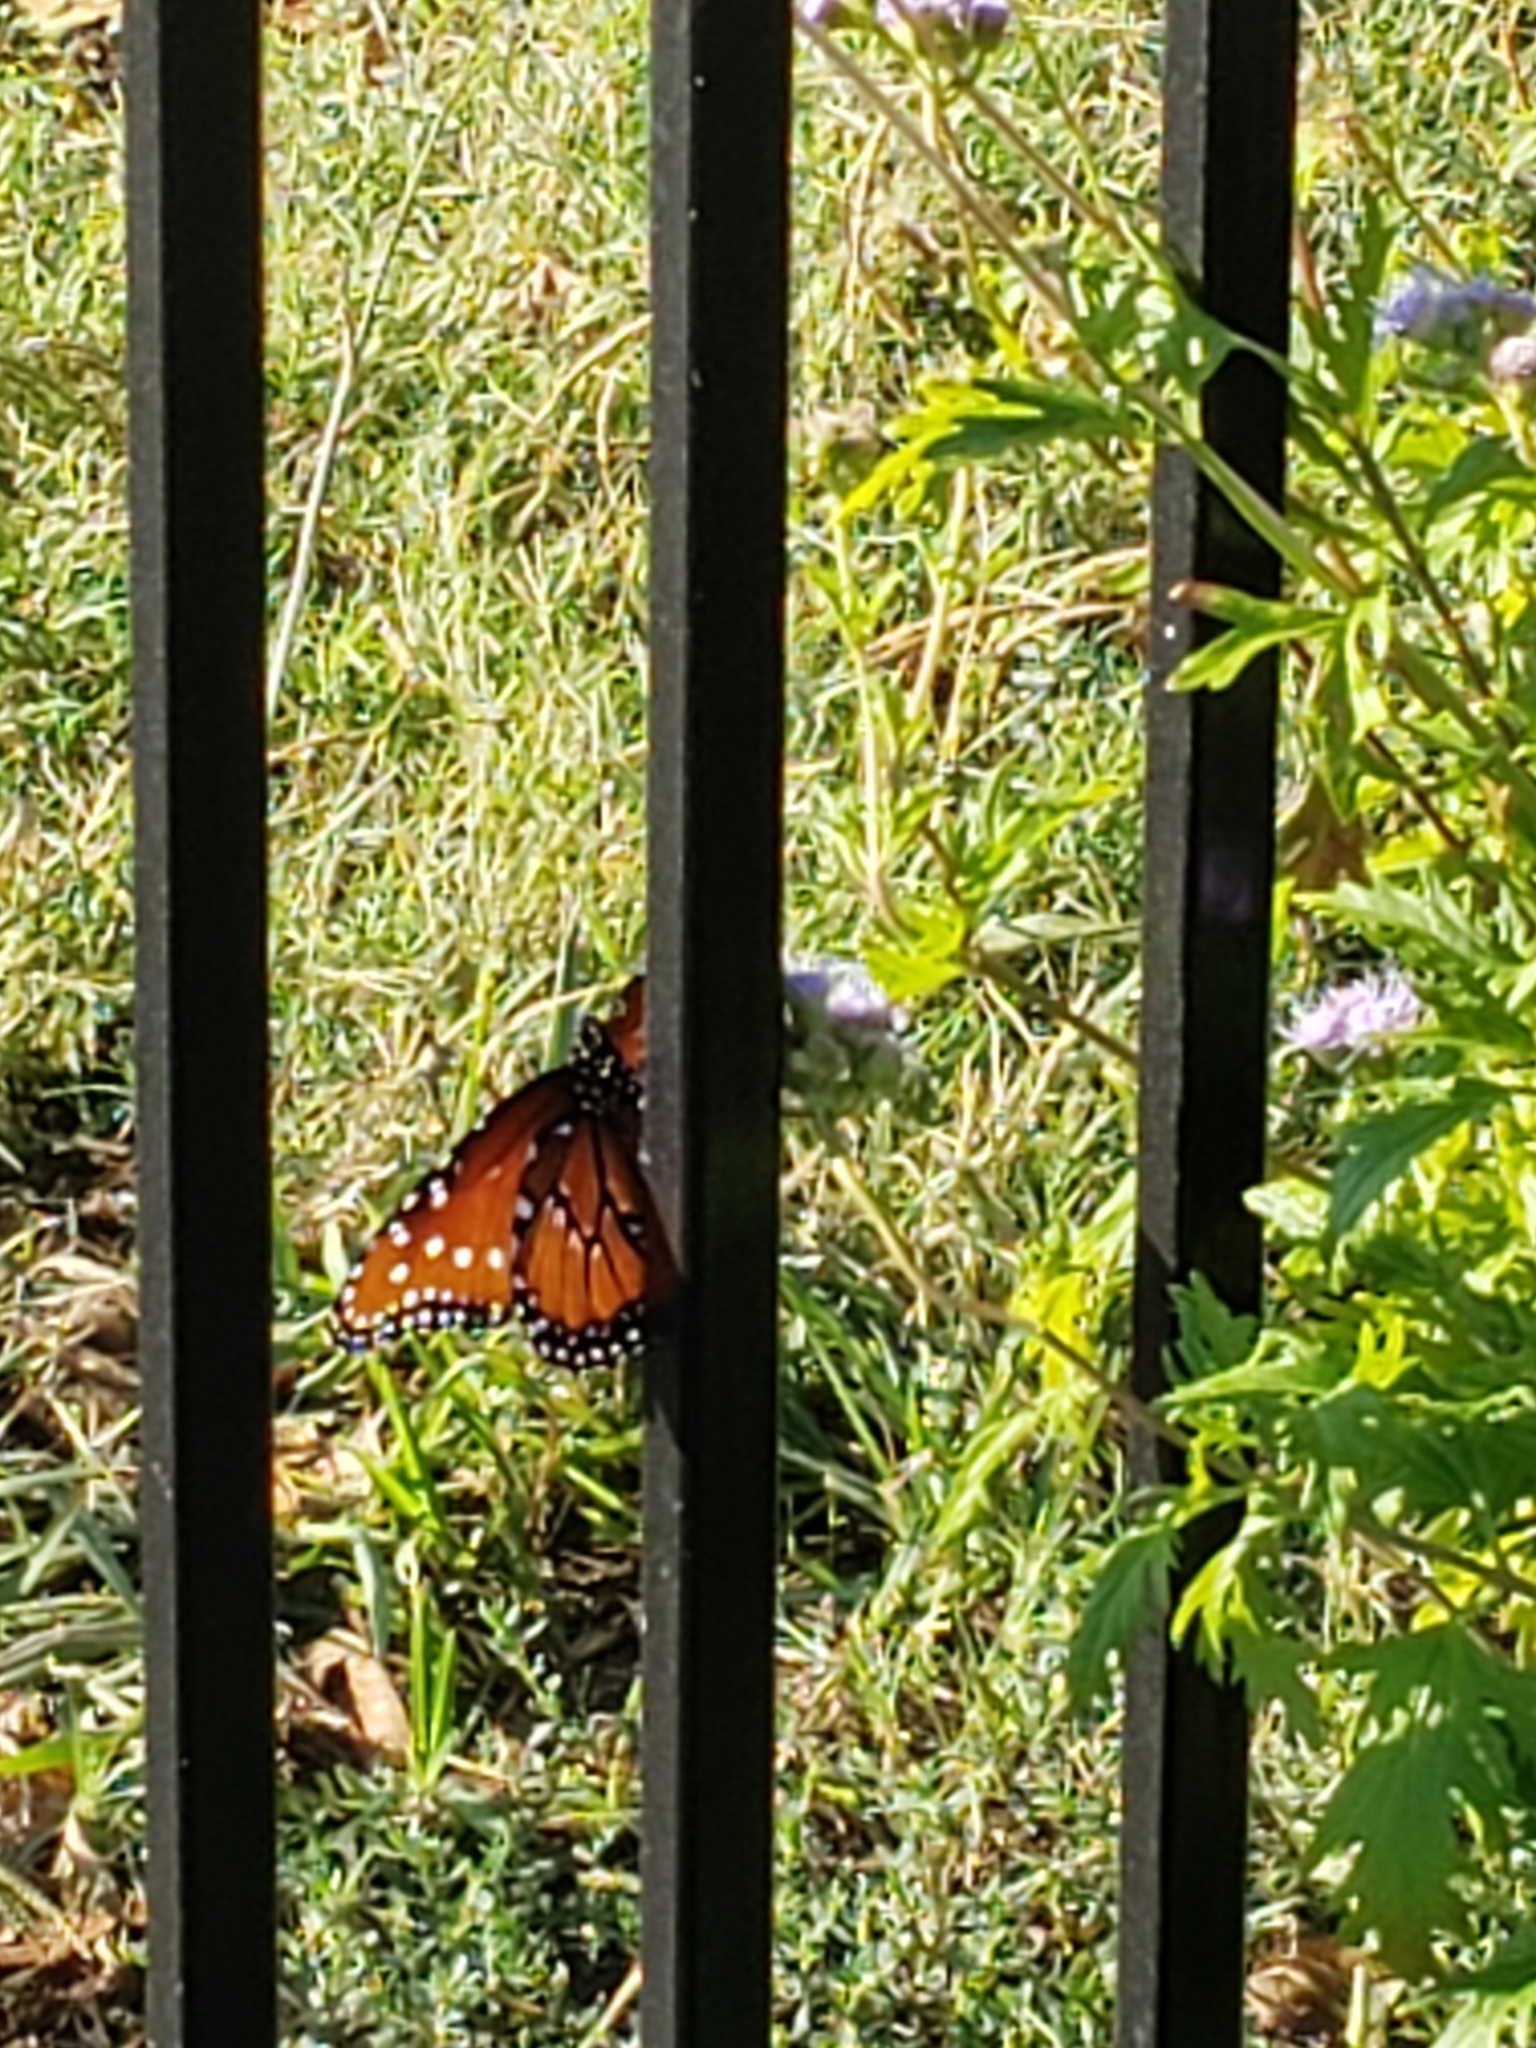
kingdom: Animalia
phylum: Arthropoda
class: Insecta
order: Lepidoptera
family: Nymphalidae
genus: Danaus
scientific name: Danaus gilippus
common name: Queen
